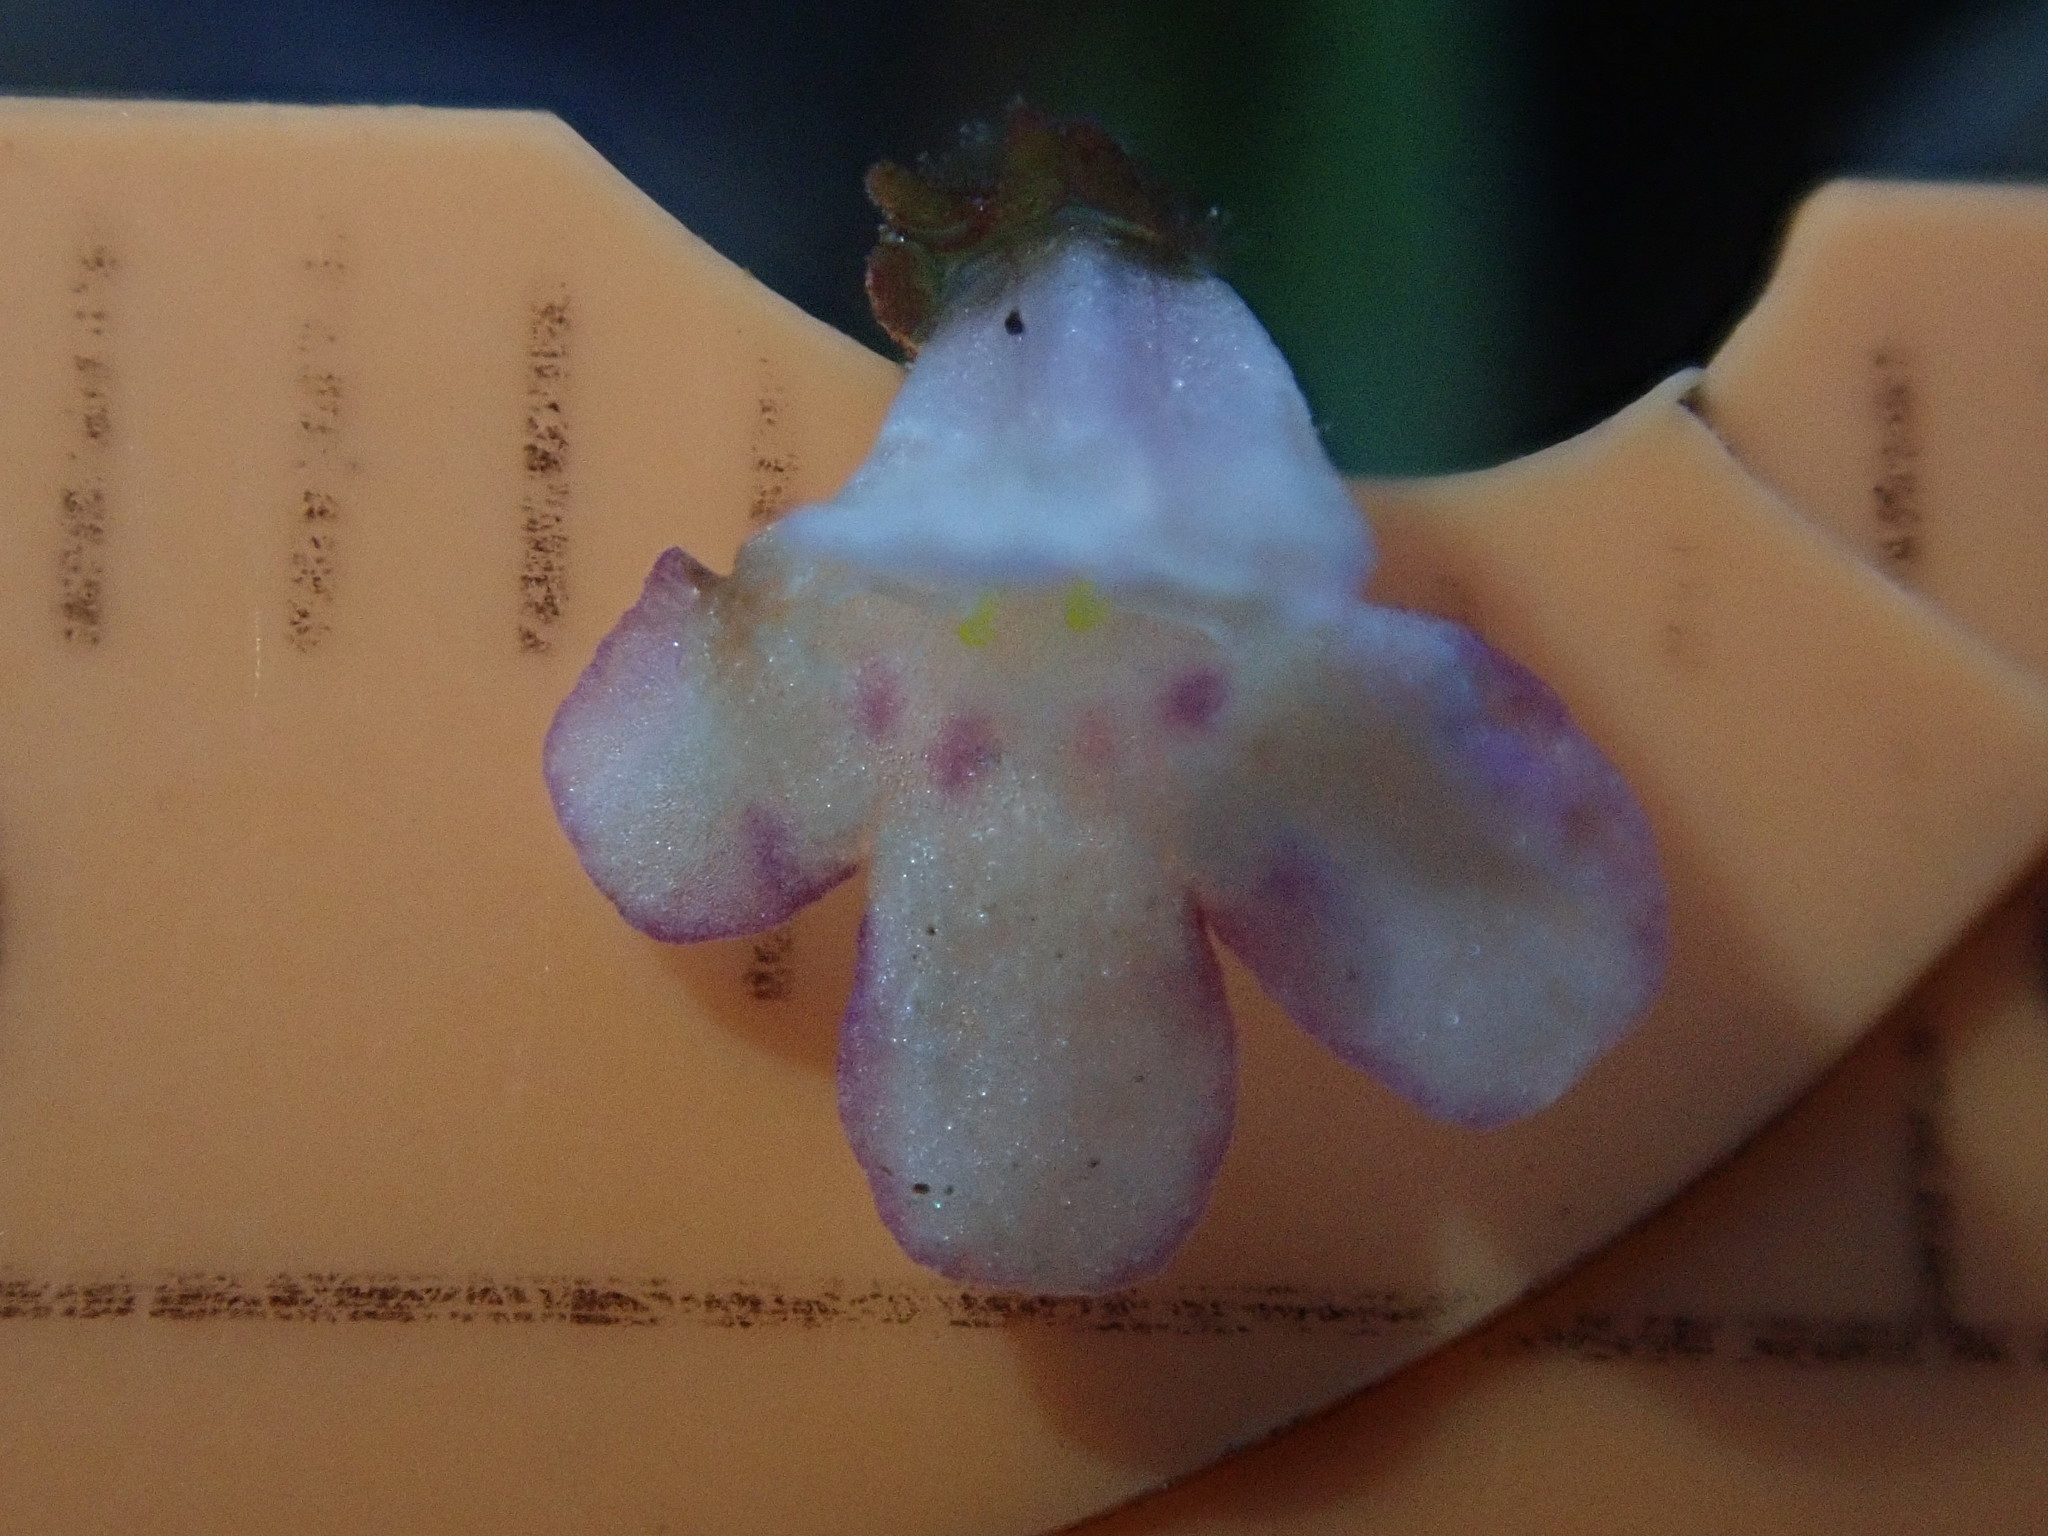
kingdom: Plantae
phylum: Tracheophyta
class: Magnoliopsida
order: Lamiales
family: Linderniaceae
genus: Lindernia
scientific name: Lindernia dubia
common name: Annual false pimpernel
